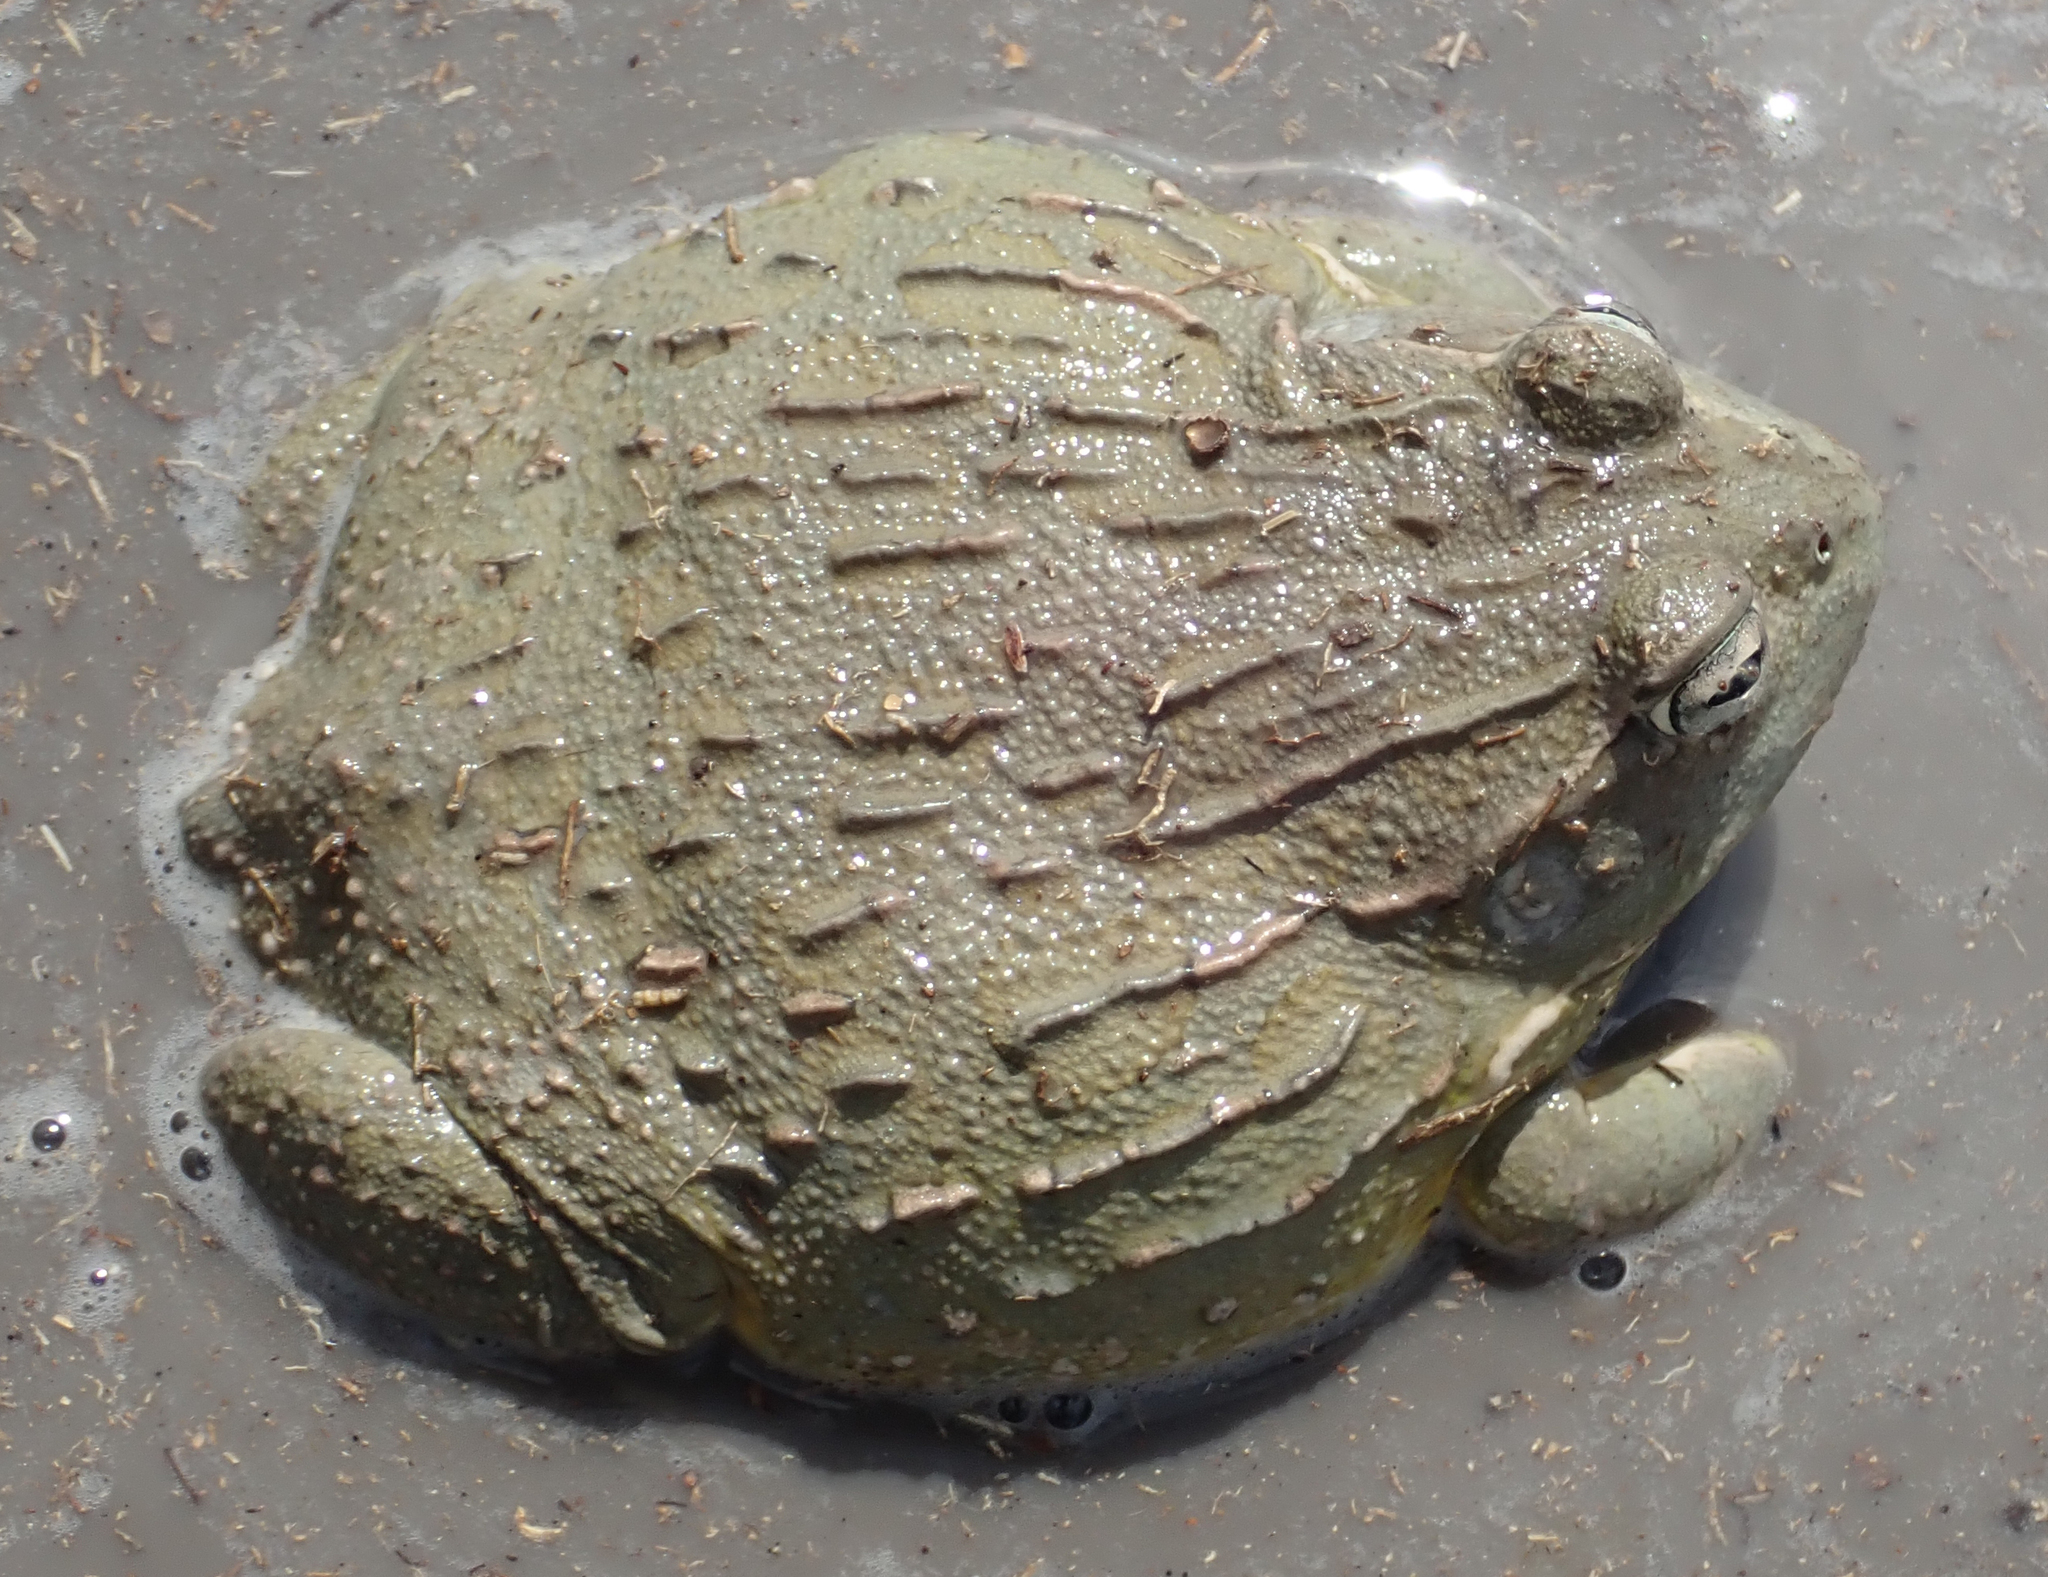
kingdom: Animalia
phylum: Chordata
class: Amphibia
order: Anura
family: Pyxicephalidae
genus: Pyxicephalus
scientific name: Pyxicephalus adspersus
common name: African bullfrog
